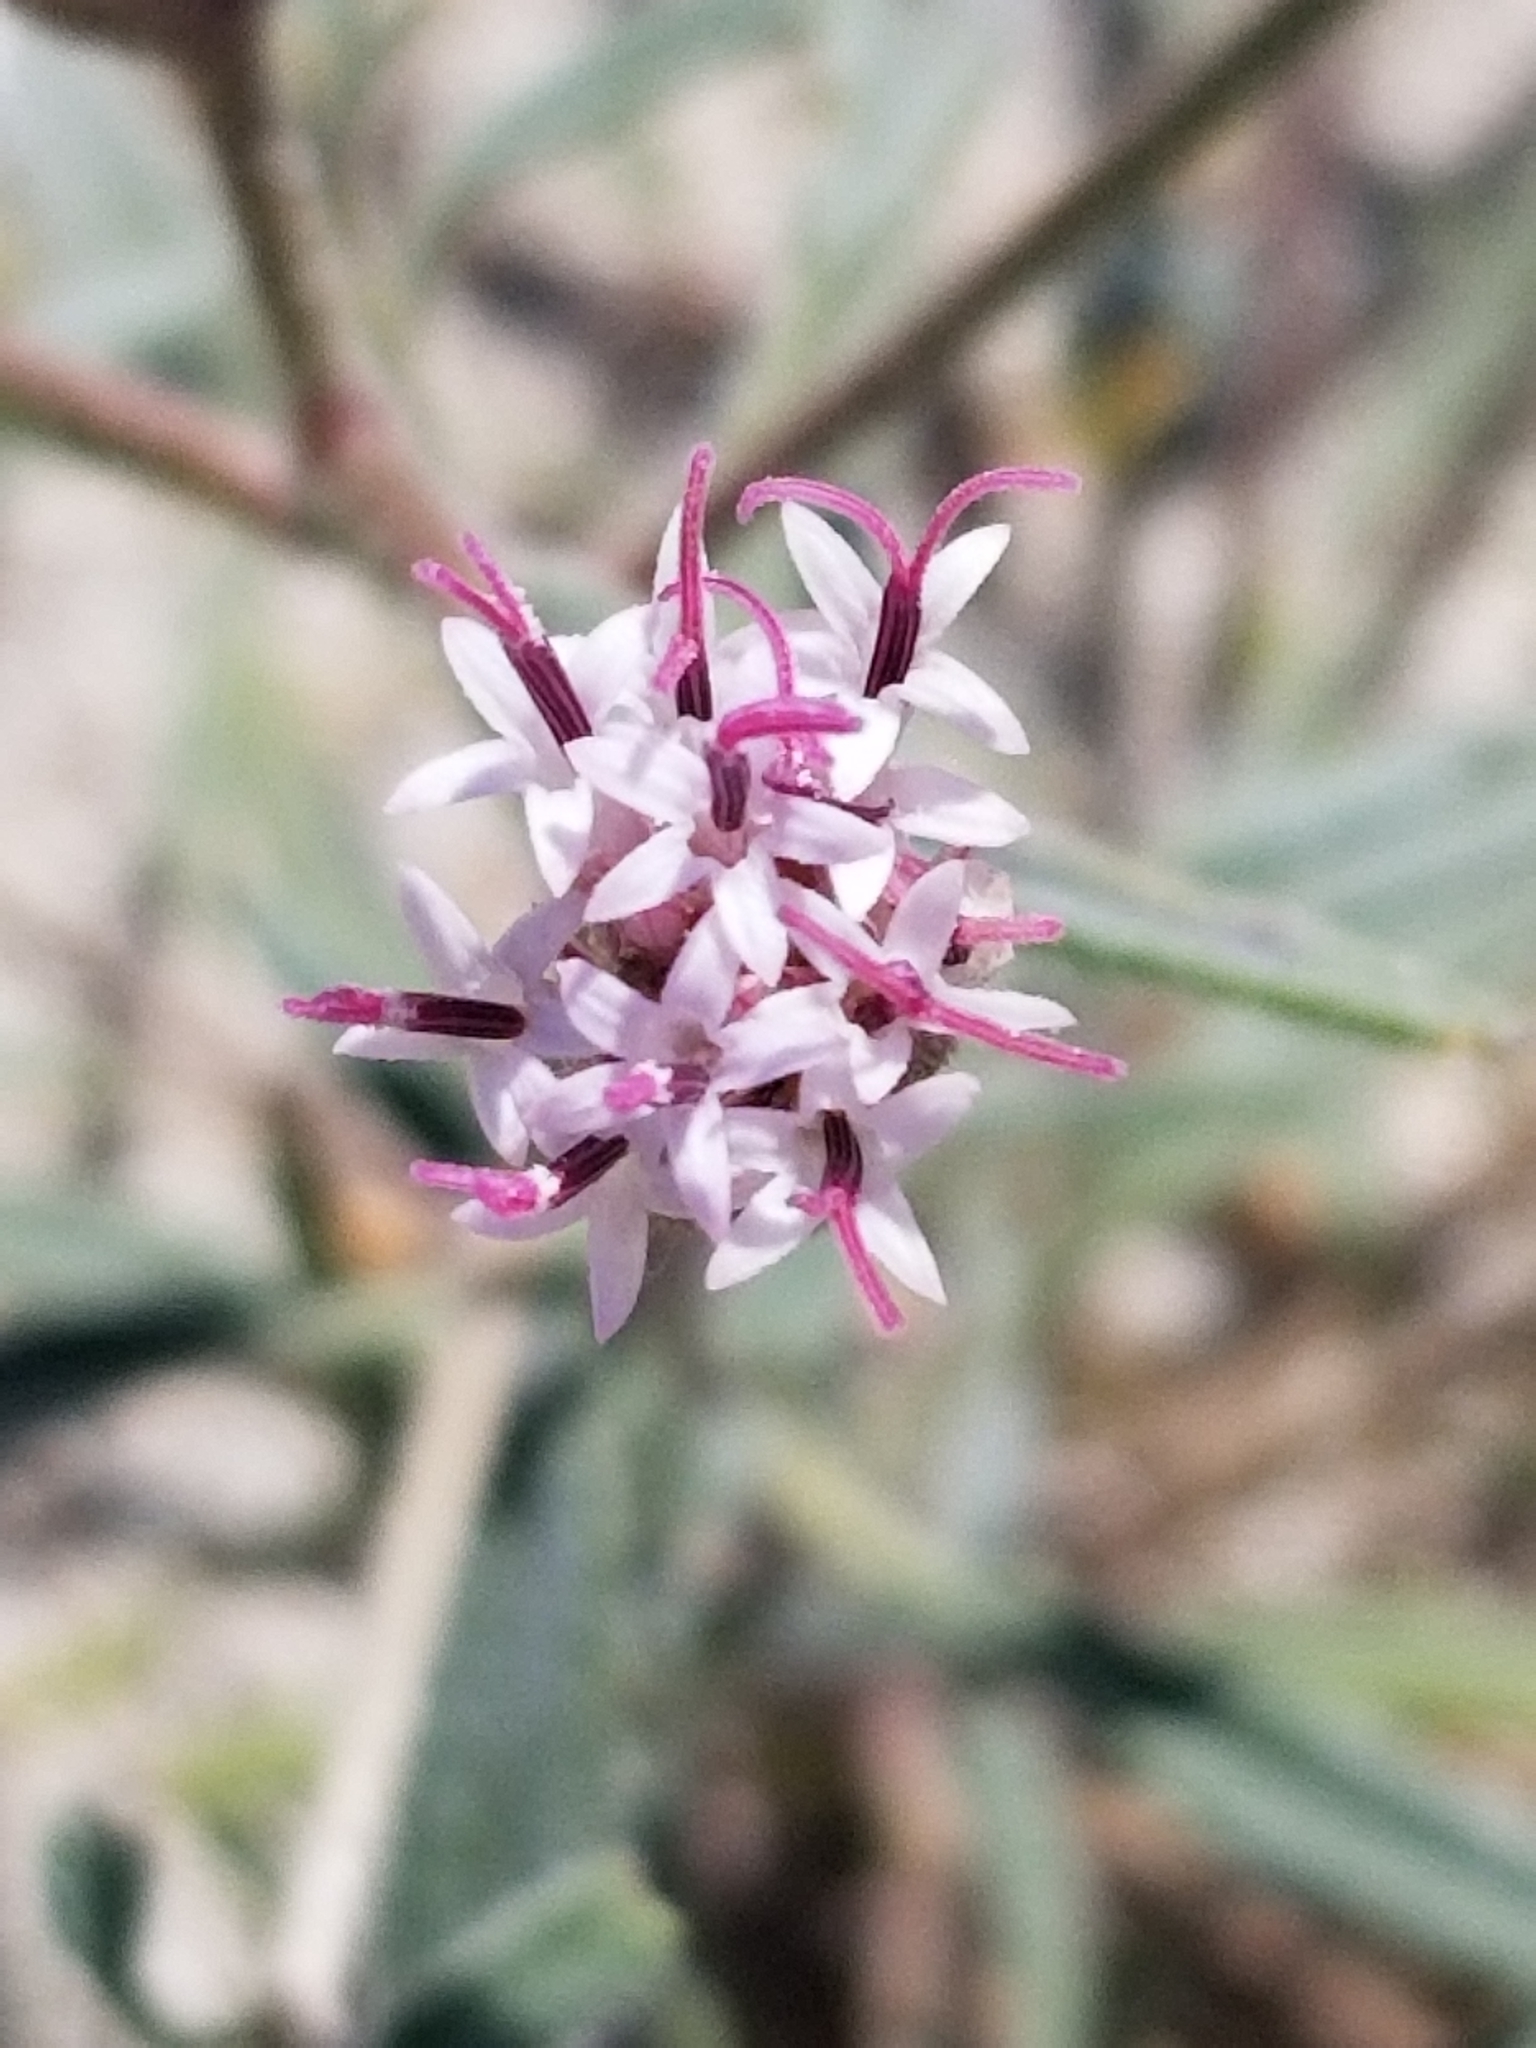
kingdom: Plantae
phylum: Tracheophyta
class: Magnoliopsida
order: Asterales
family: Asteraceae
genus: Palafoxia
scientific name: Palafoxia arida
